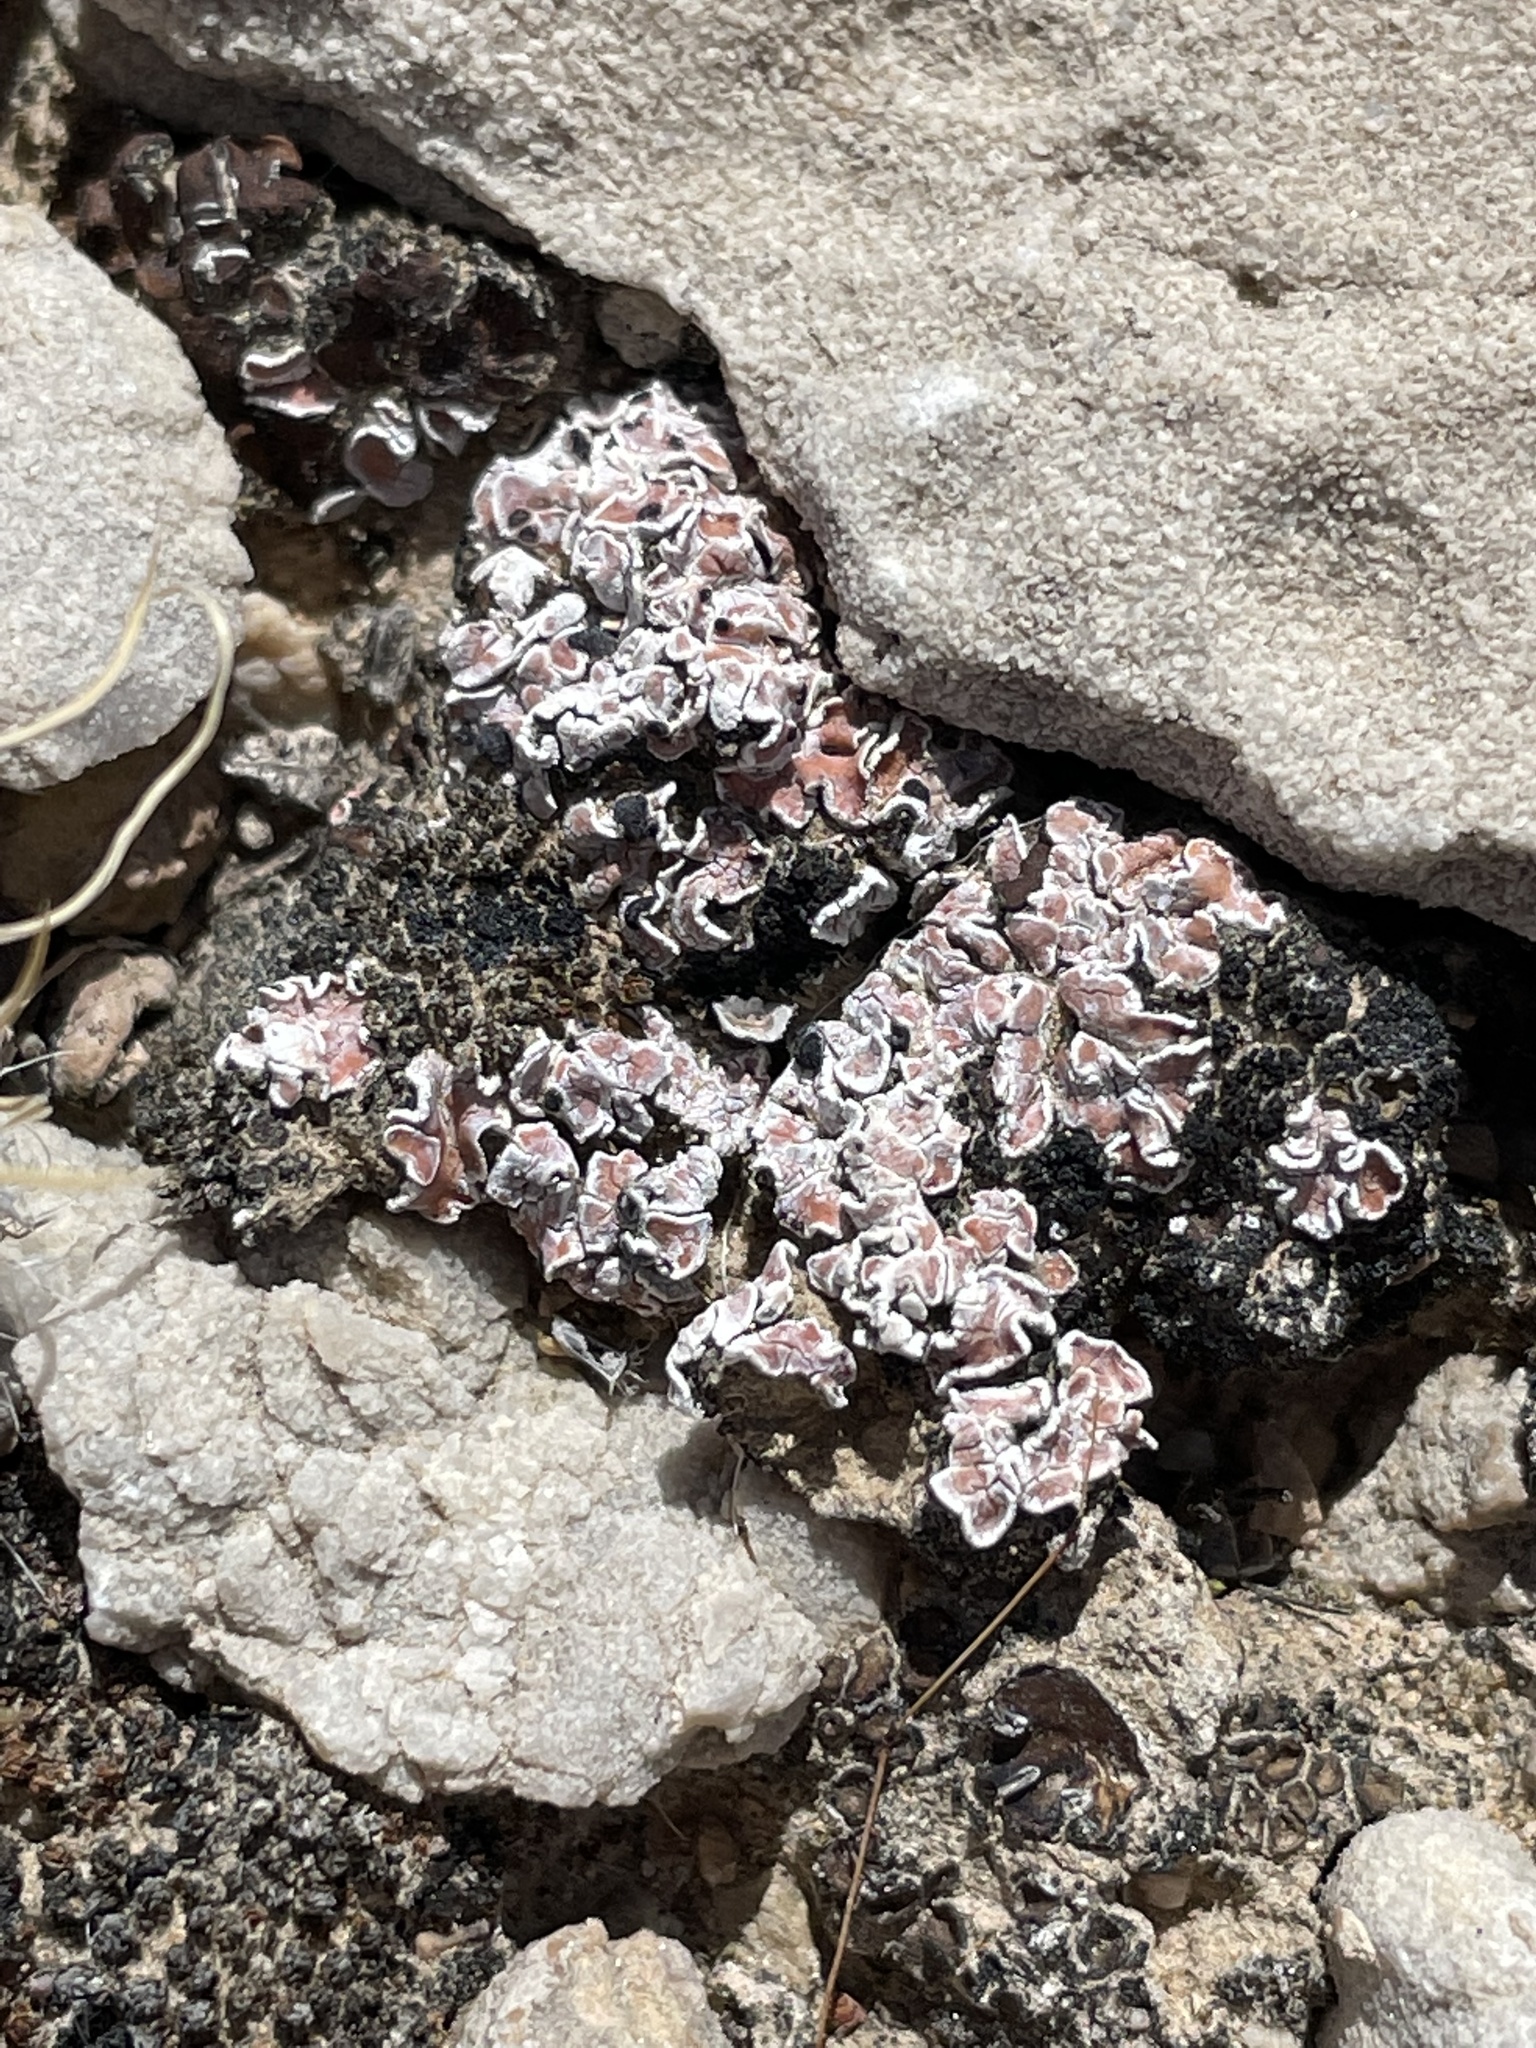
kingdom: Fungi
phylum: Ascomycota
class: Lecanoromycetes
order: Lecanorales
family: Psoraceae
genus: Psora
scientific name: Psora decipiens
